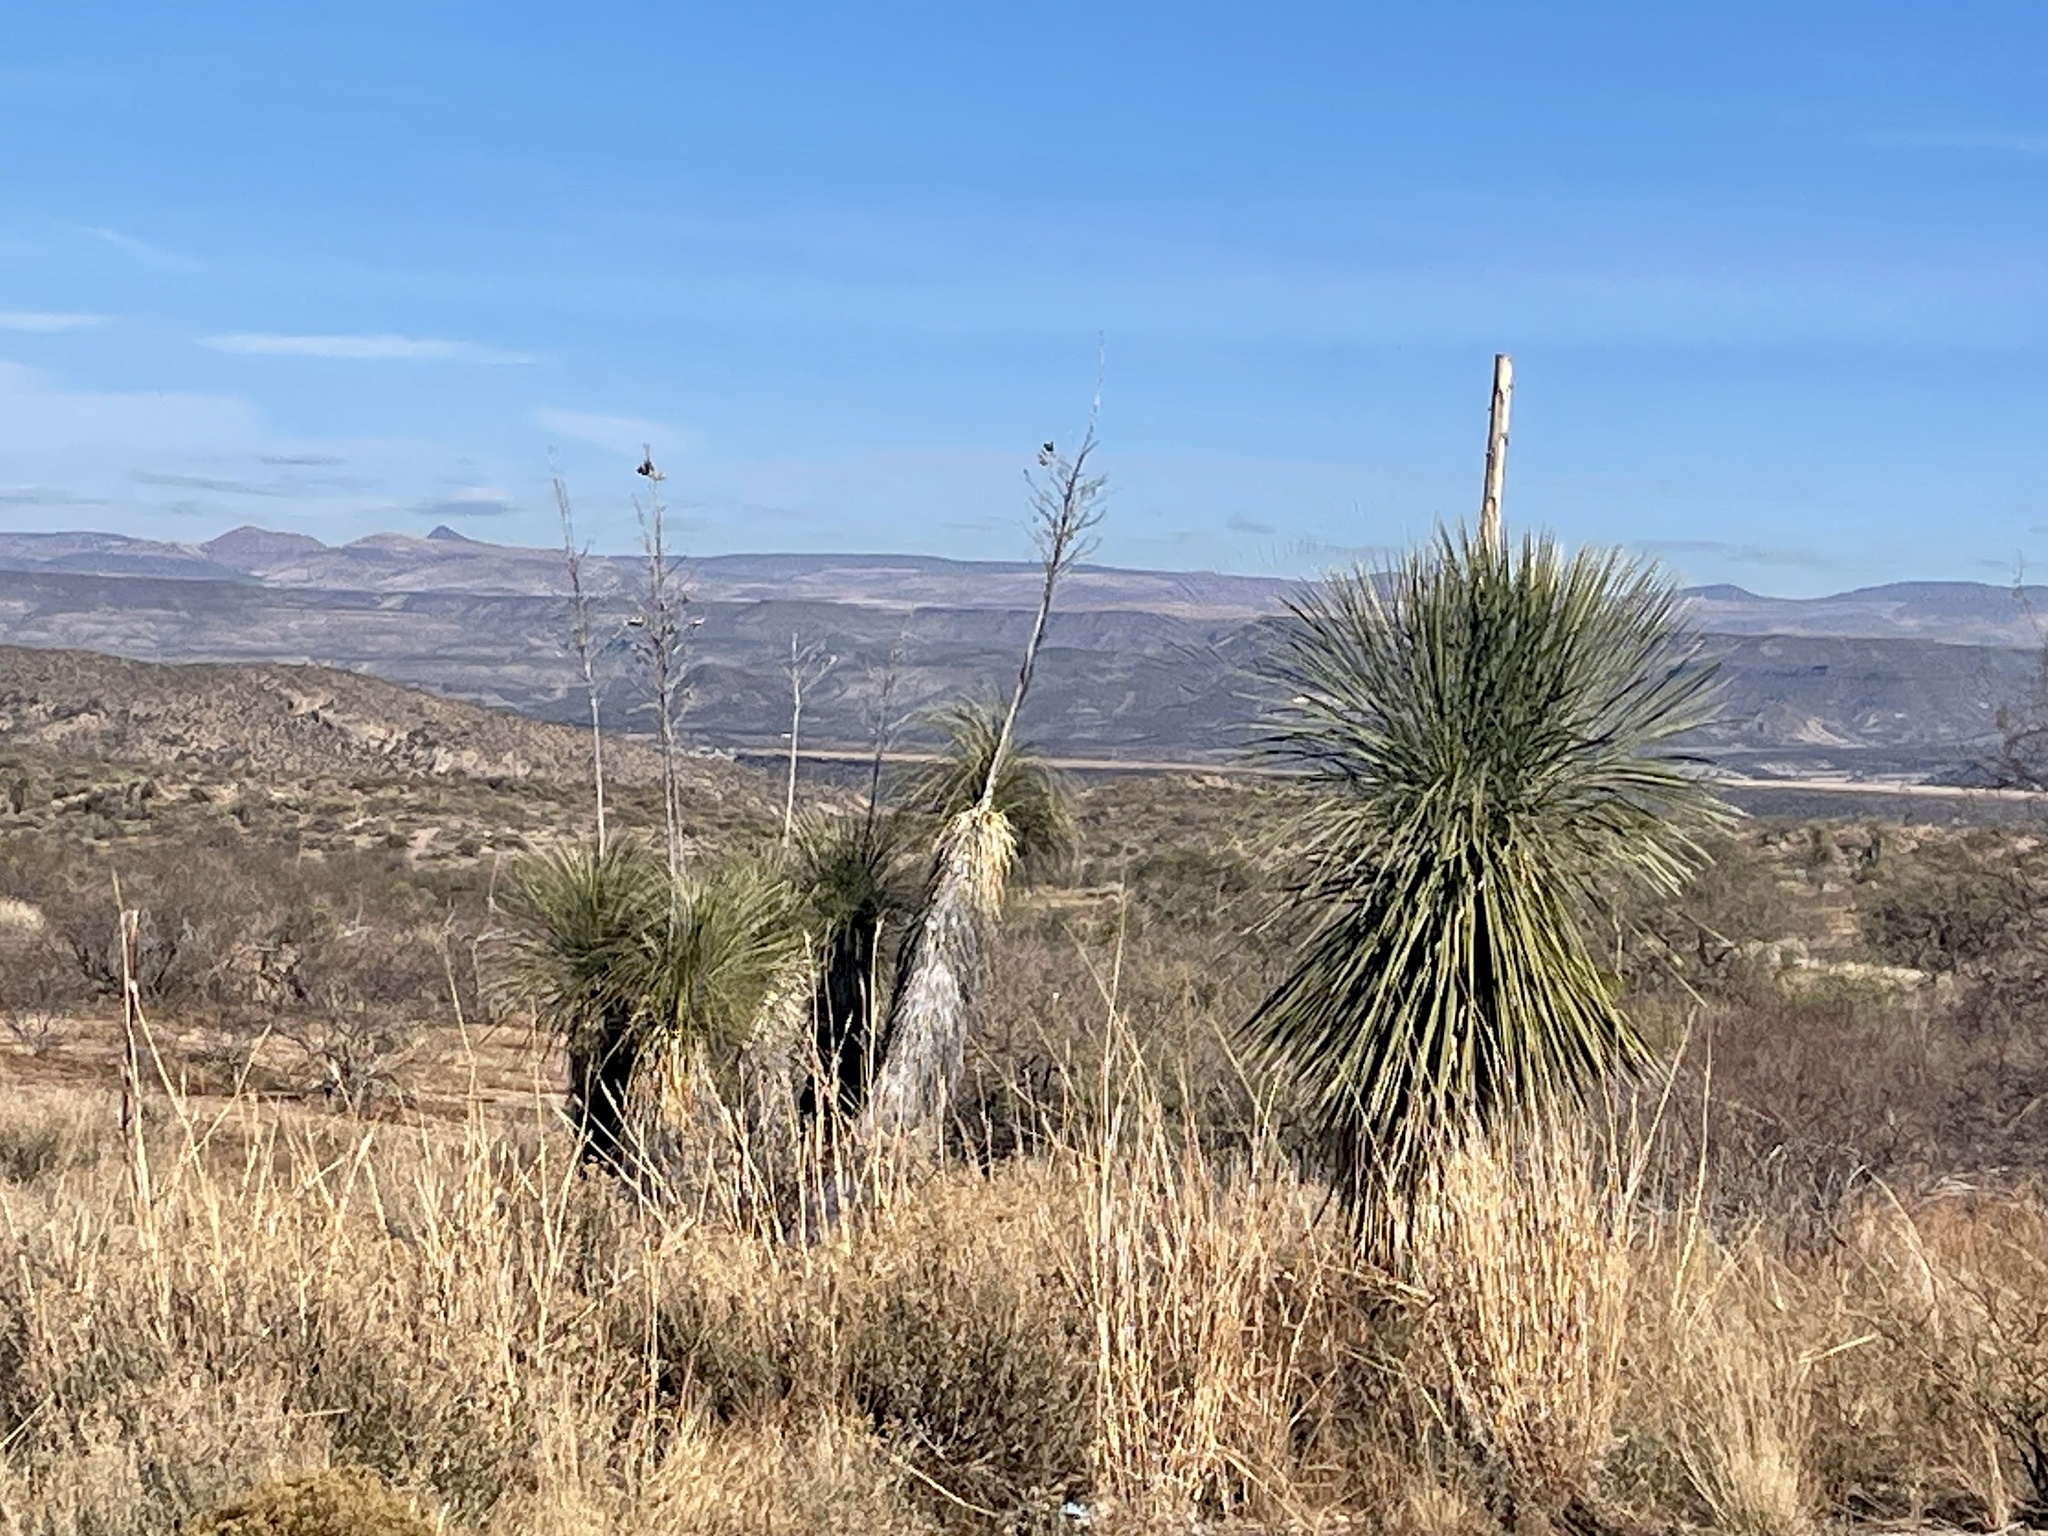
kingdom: Plantae
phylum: Tracheophyta
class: Liliopsida
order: Asparagales
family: Asparagaceae
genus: Yucca
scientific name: Yucca elata
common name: Palmella
